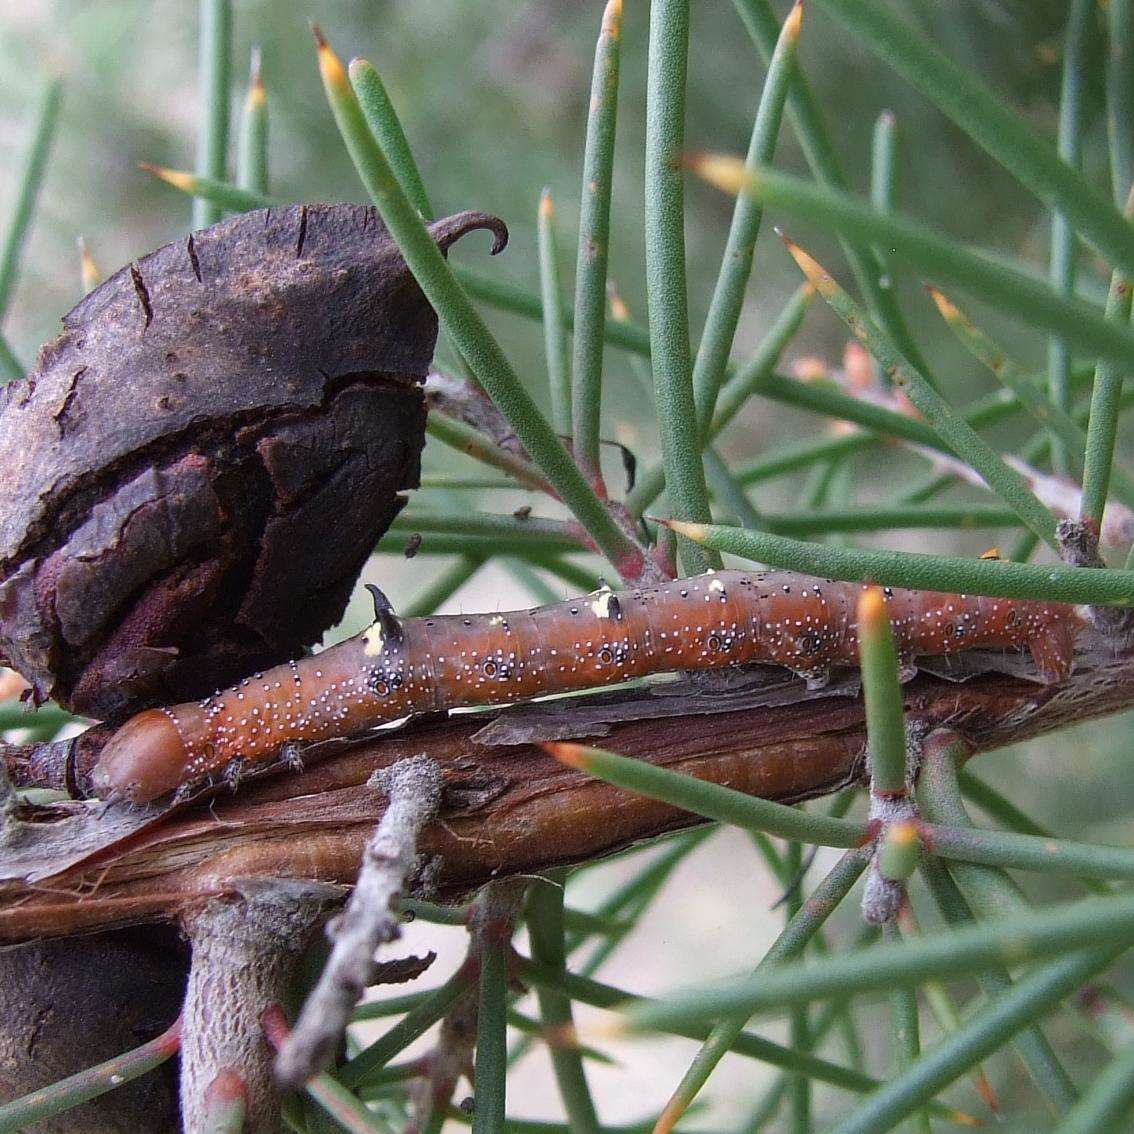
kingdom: Animalia
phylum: Arthropoda
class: Insecta
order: Lepidoptera
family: Geometridae
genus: Oenochroma
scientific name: Oenochroma vinaria
